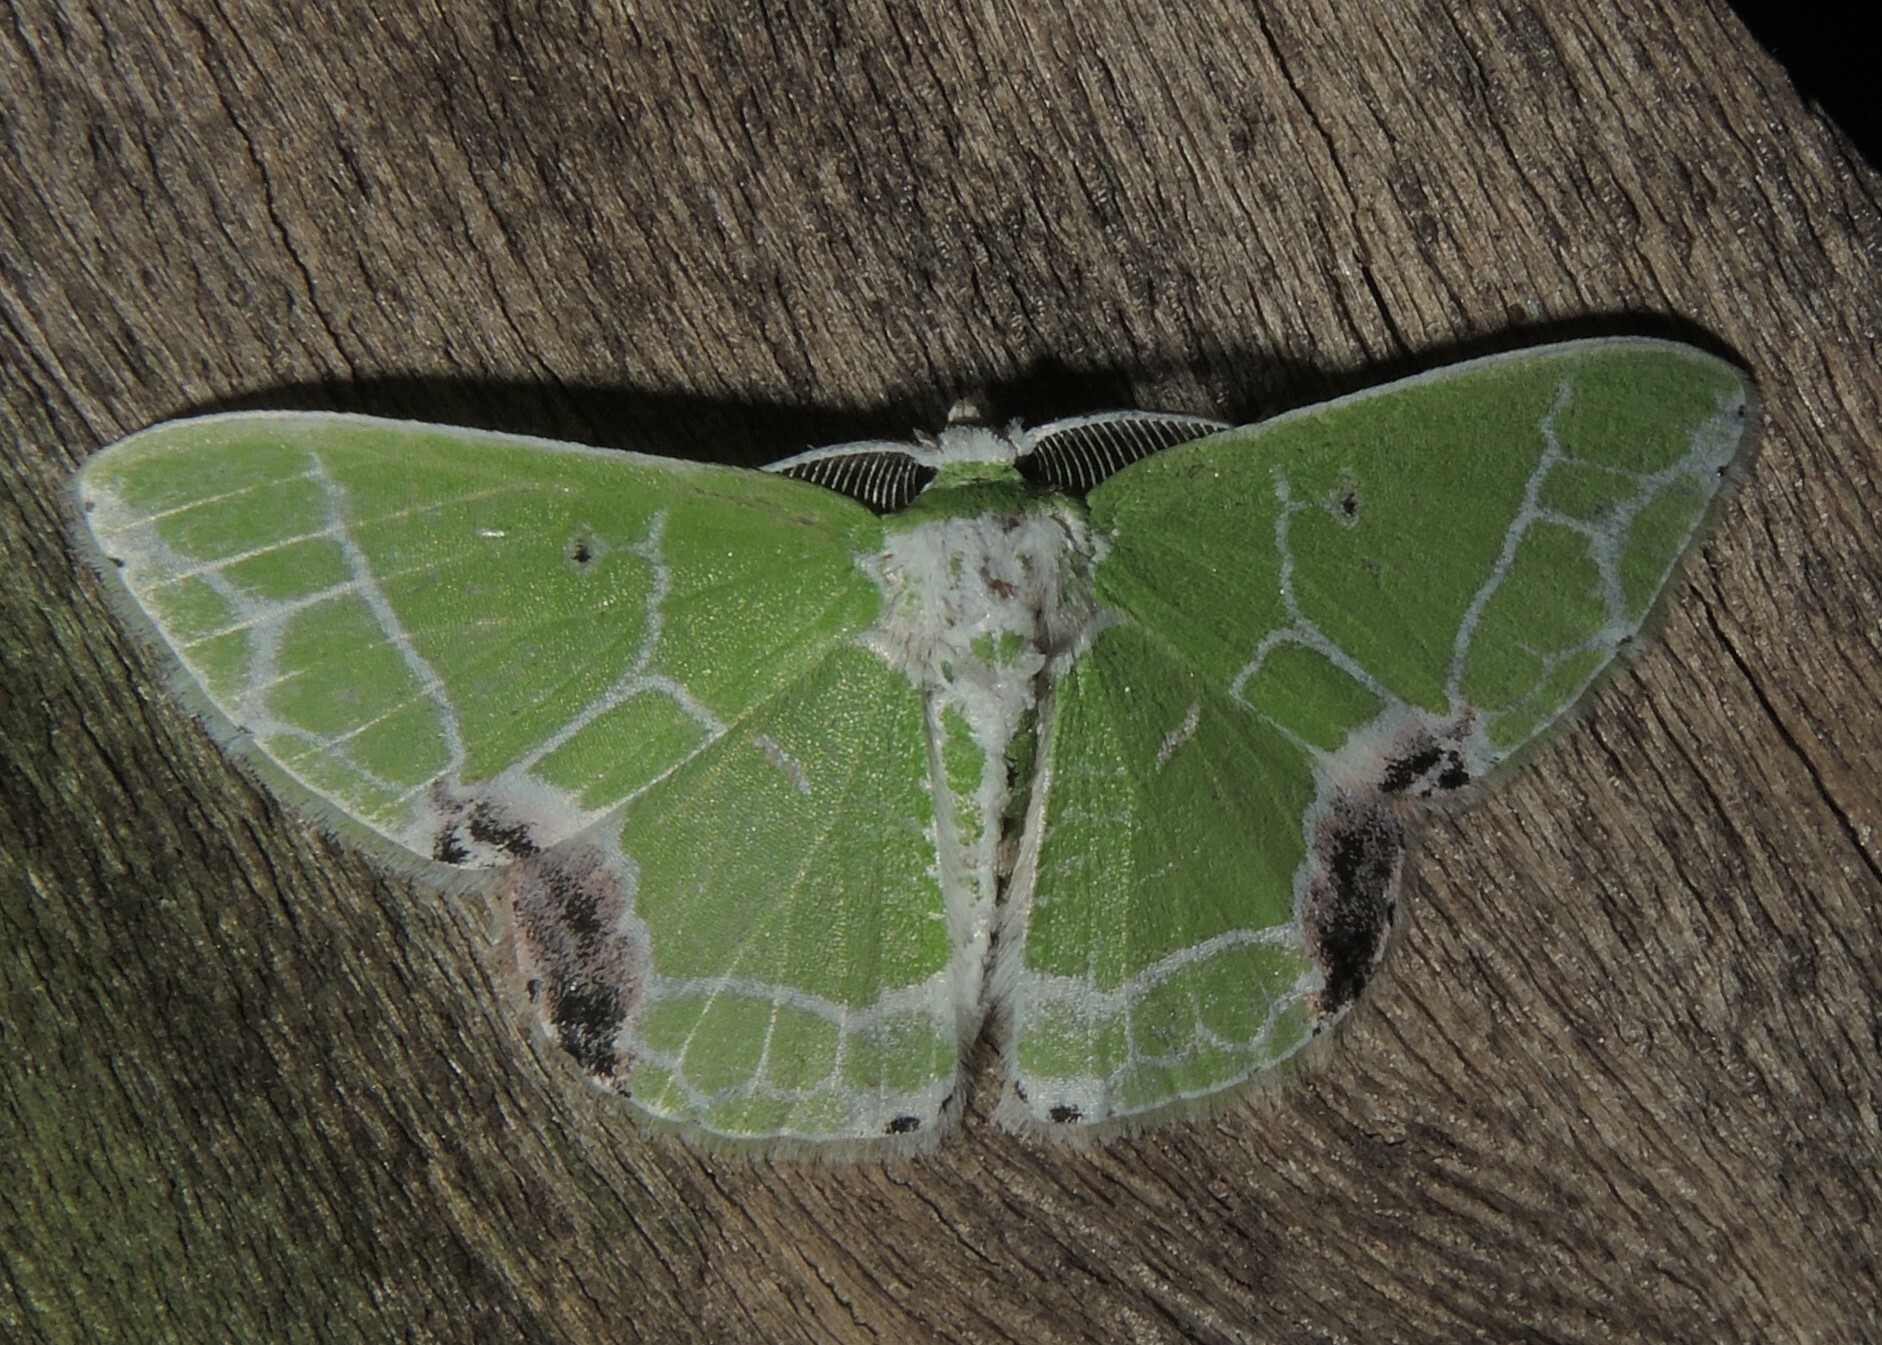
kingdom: Animalia
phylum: Arthropoda
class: Insecta
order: Lepidoptera
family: Geometridae
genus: Protuliocnemis
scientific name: Protuliocnemis biplagiata
